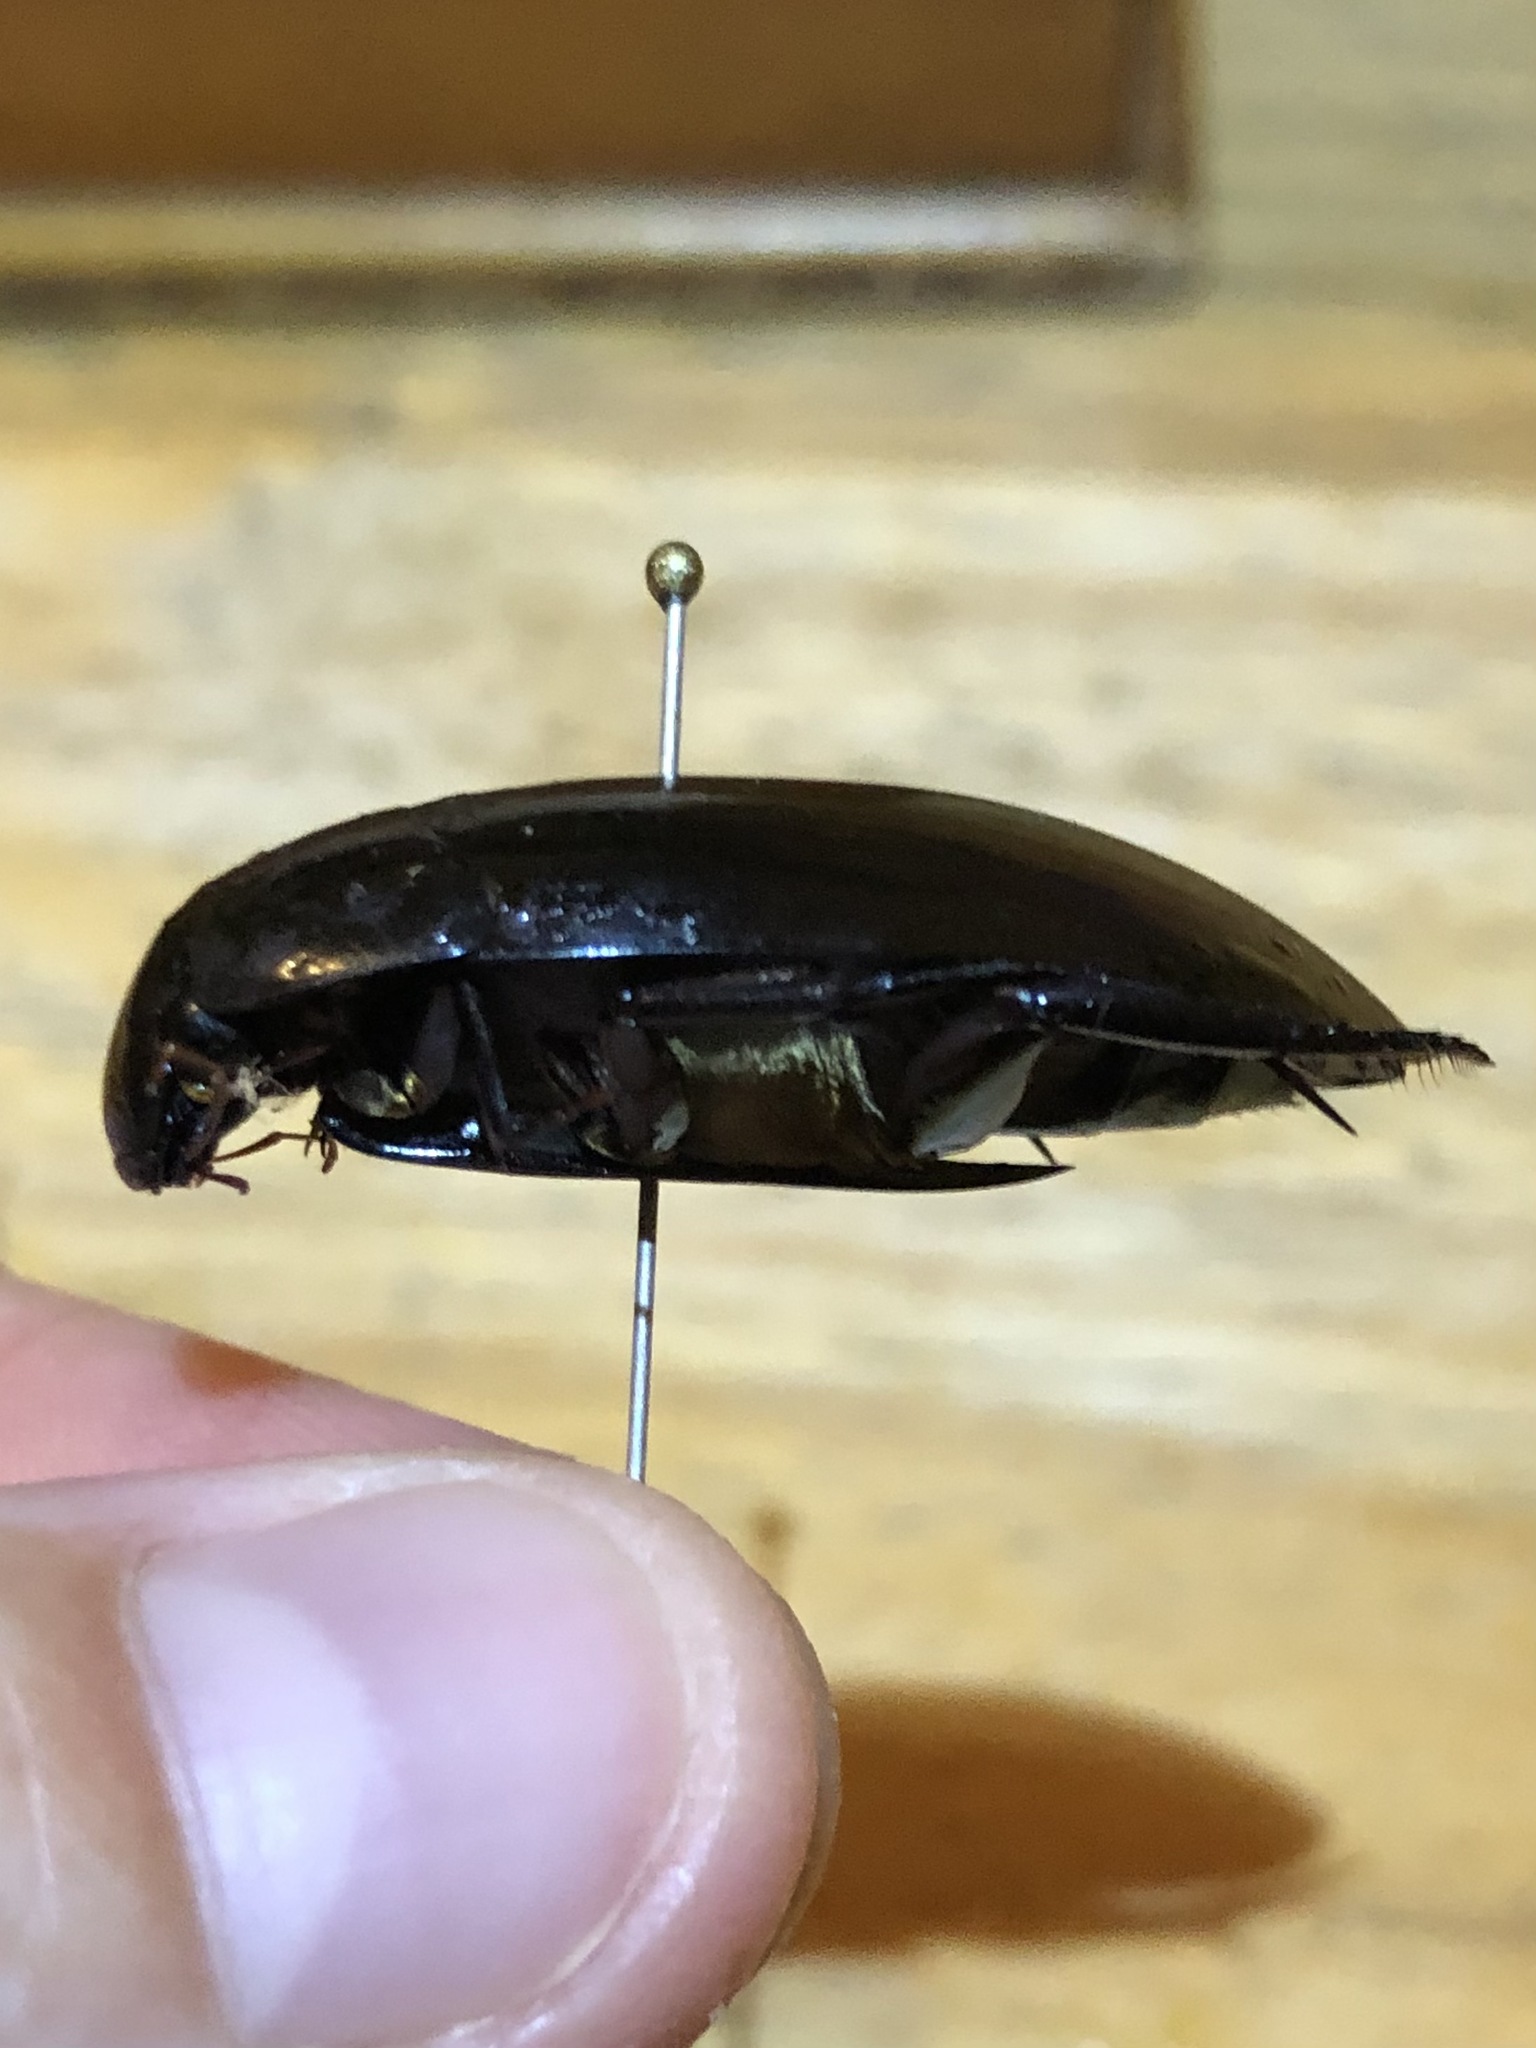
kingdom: Animalia
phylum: Arthropoda
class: Insecta
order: Coleoptera
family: Hydrophilidae
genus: Hydrophilus
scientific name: Hydrophilus ensifer
